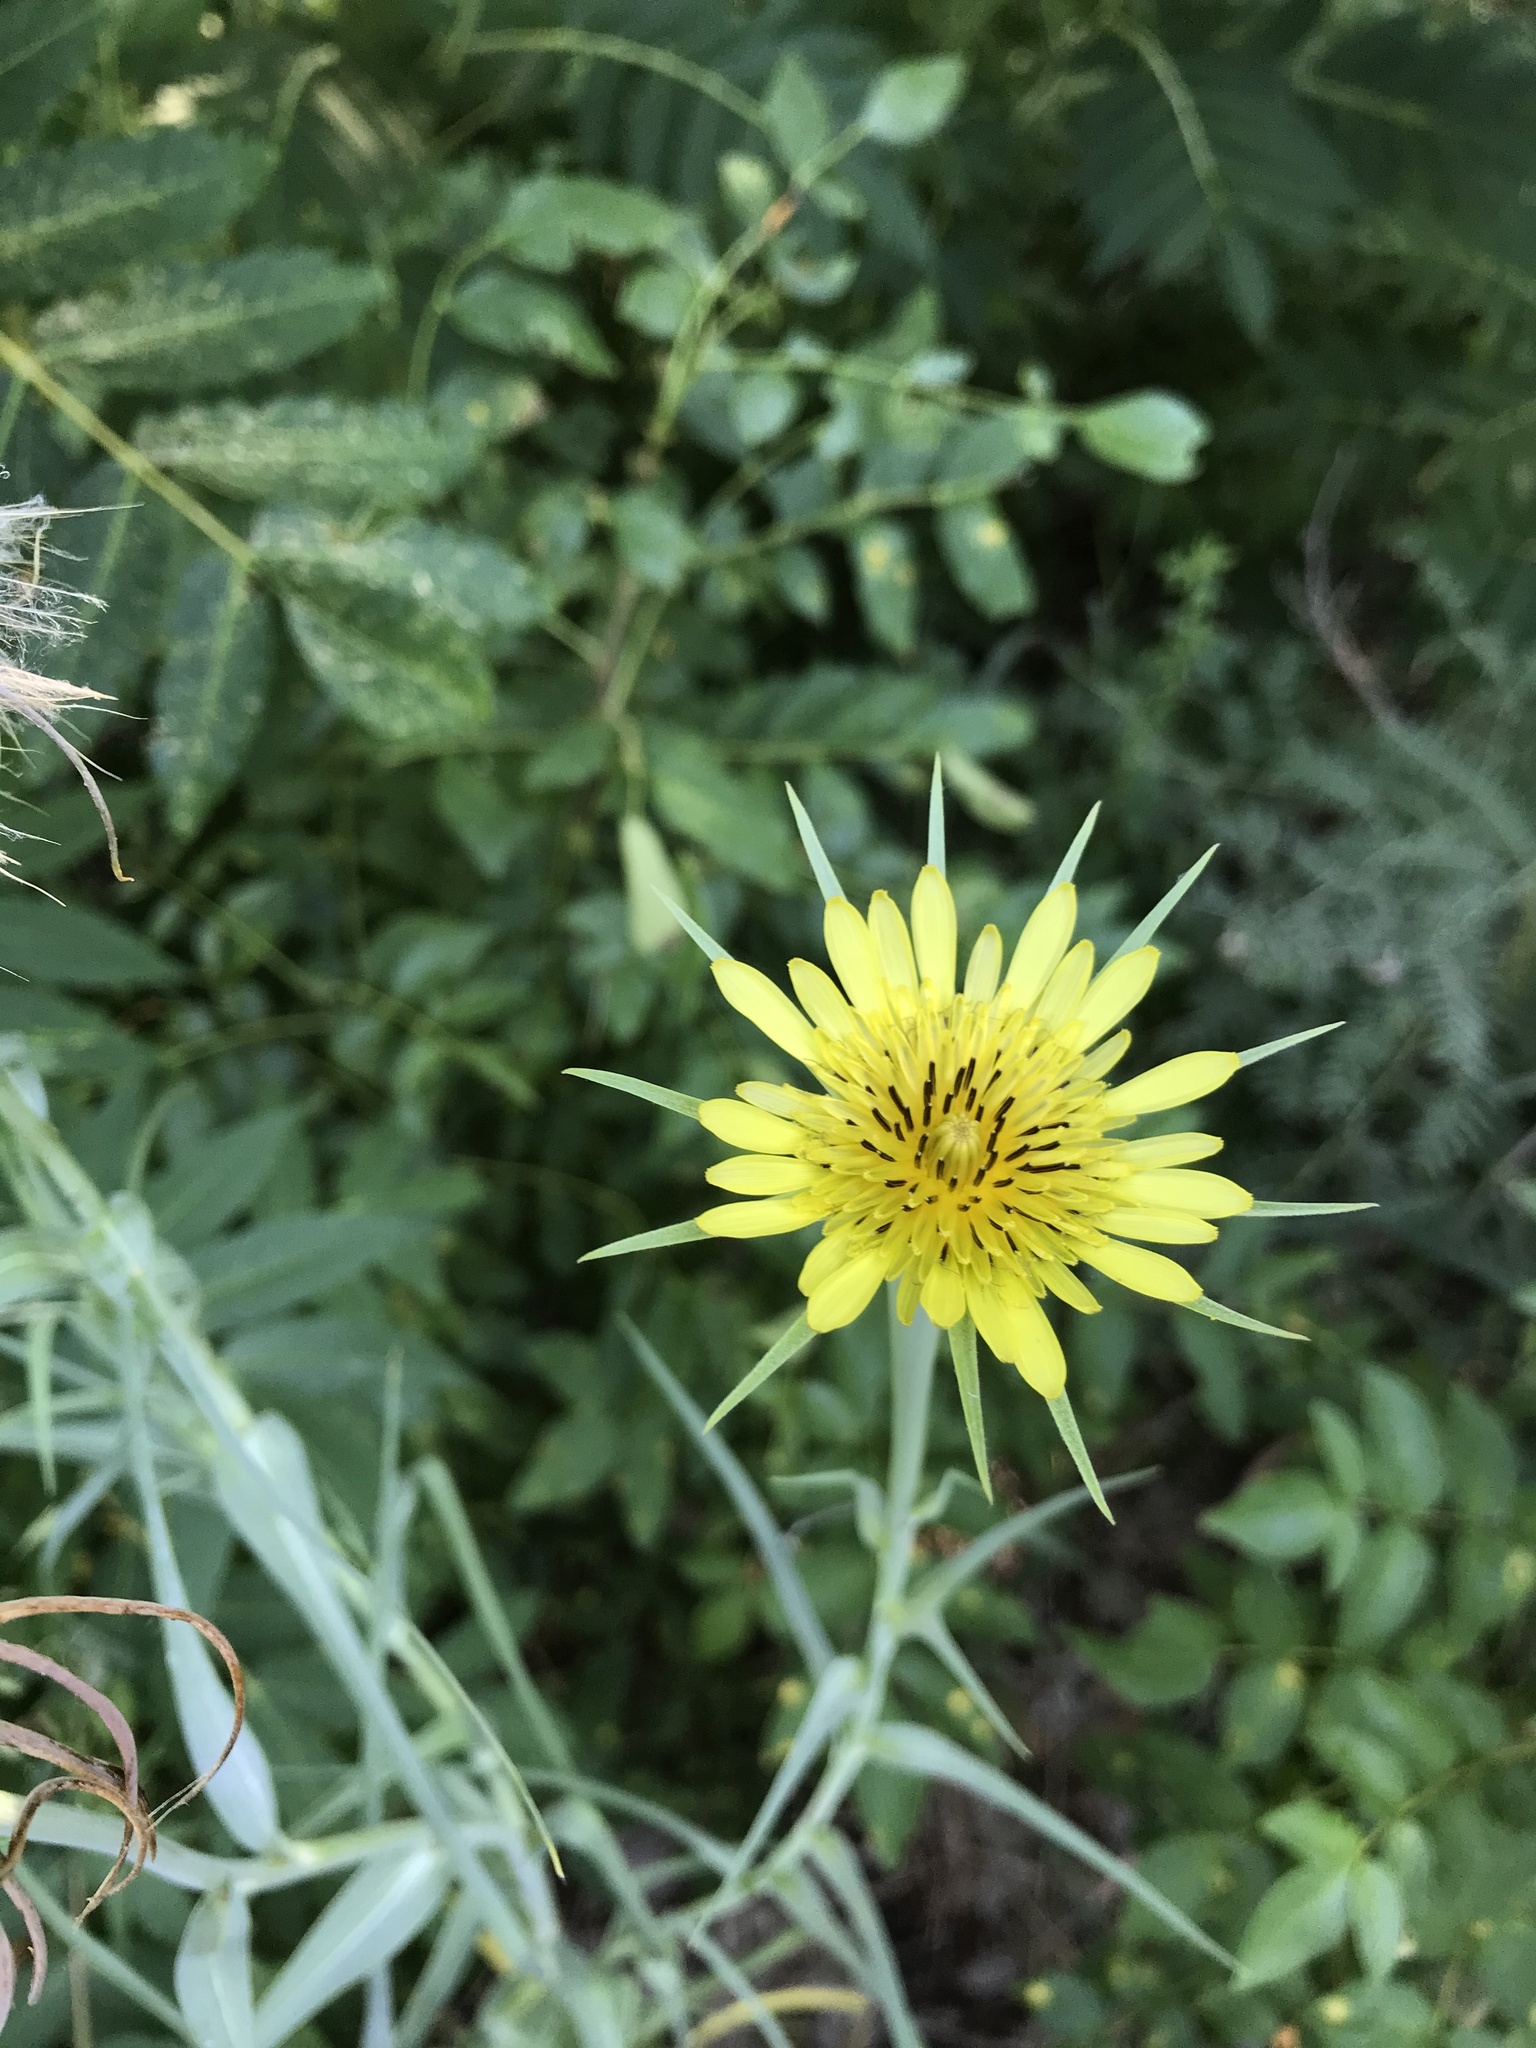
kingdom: Plantae
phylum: Tracheophyta
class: Magnoliopsida
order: Asterales
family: Asteraceae
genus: Tragopogon
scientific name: Tragopogon dubius
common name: Yellow salsify
